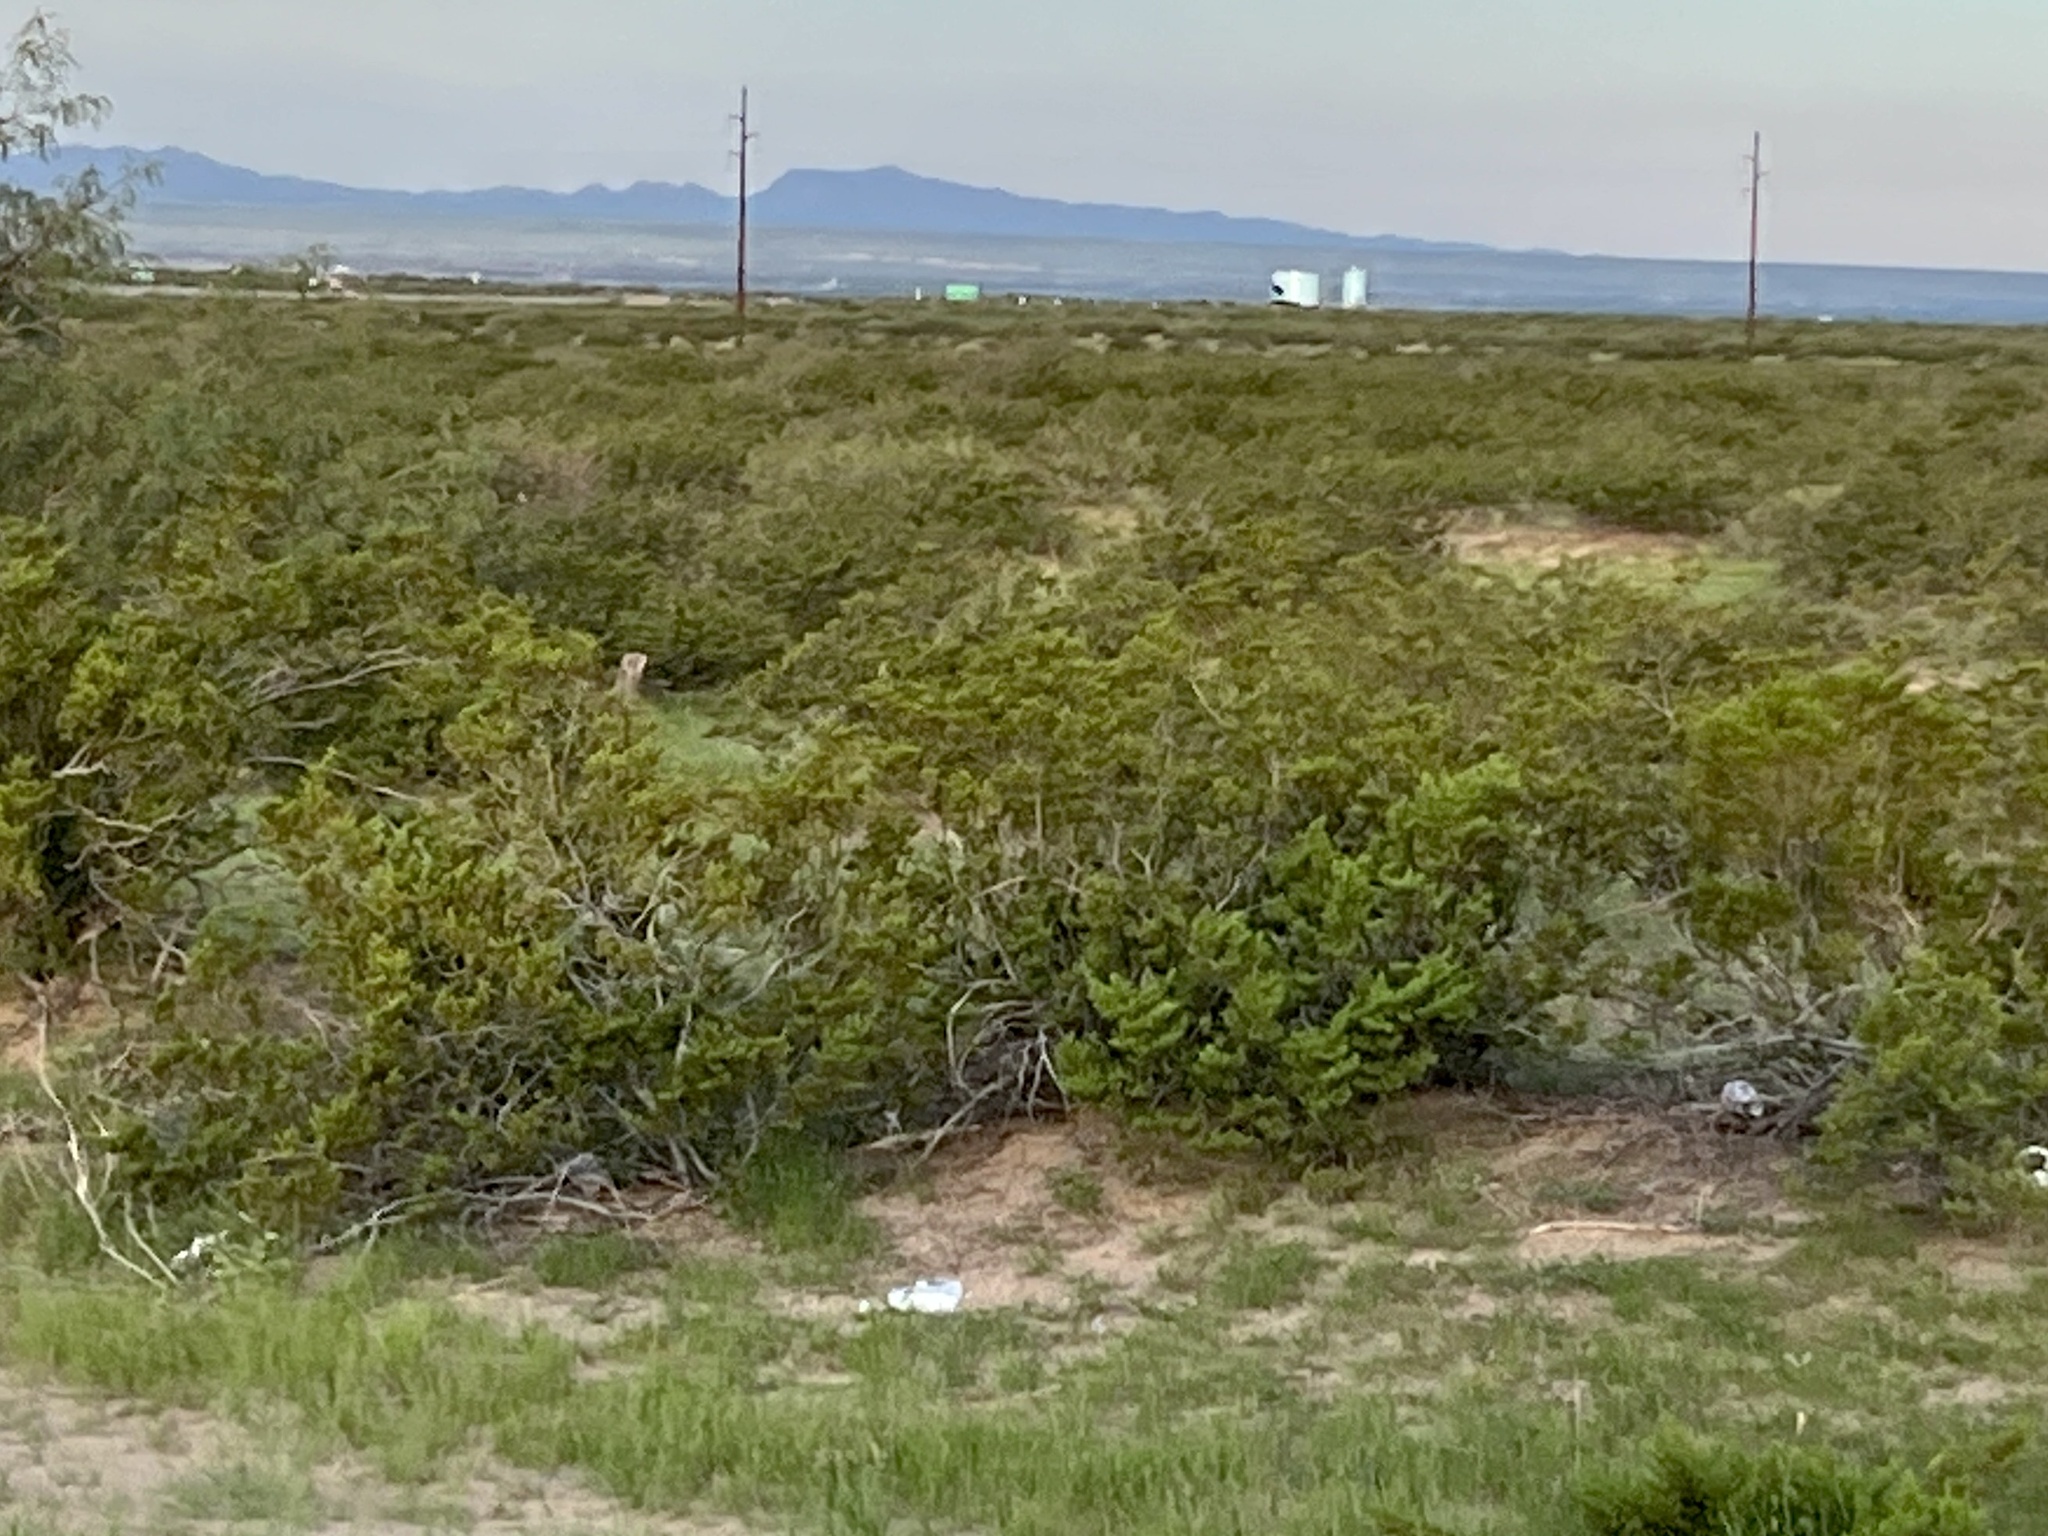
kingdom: Plantae
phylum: Tracheophyta
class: Magnoliopsida
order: Zygophyllales
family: Zygophyllaceae
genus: Larrea
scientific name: Larrea tridentata
